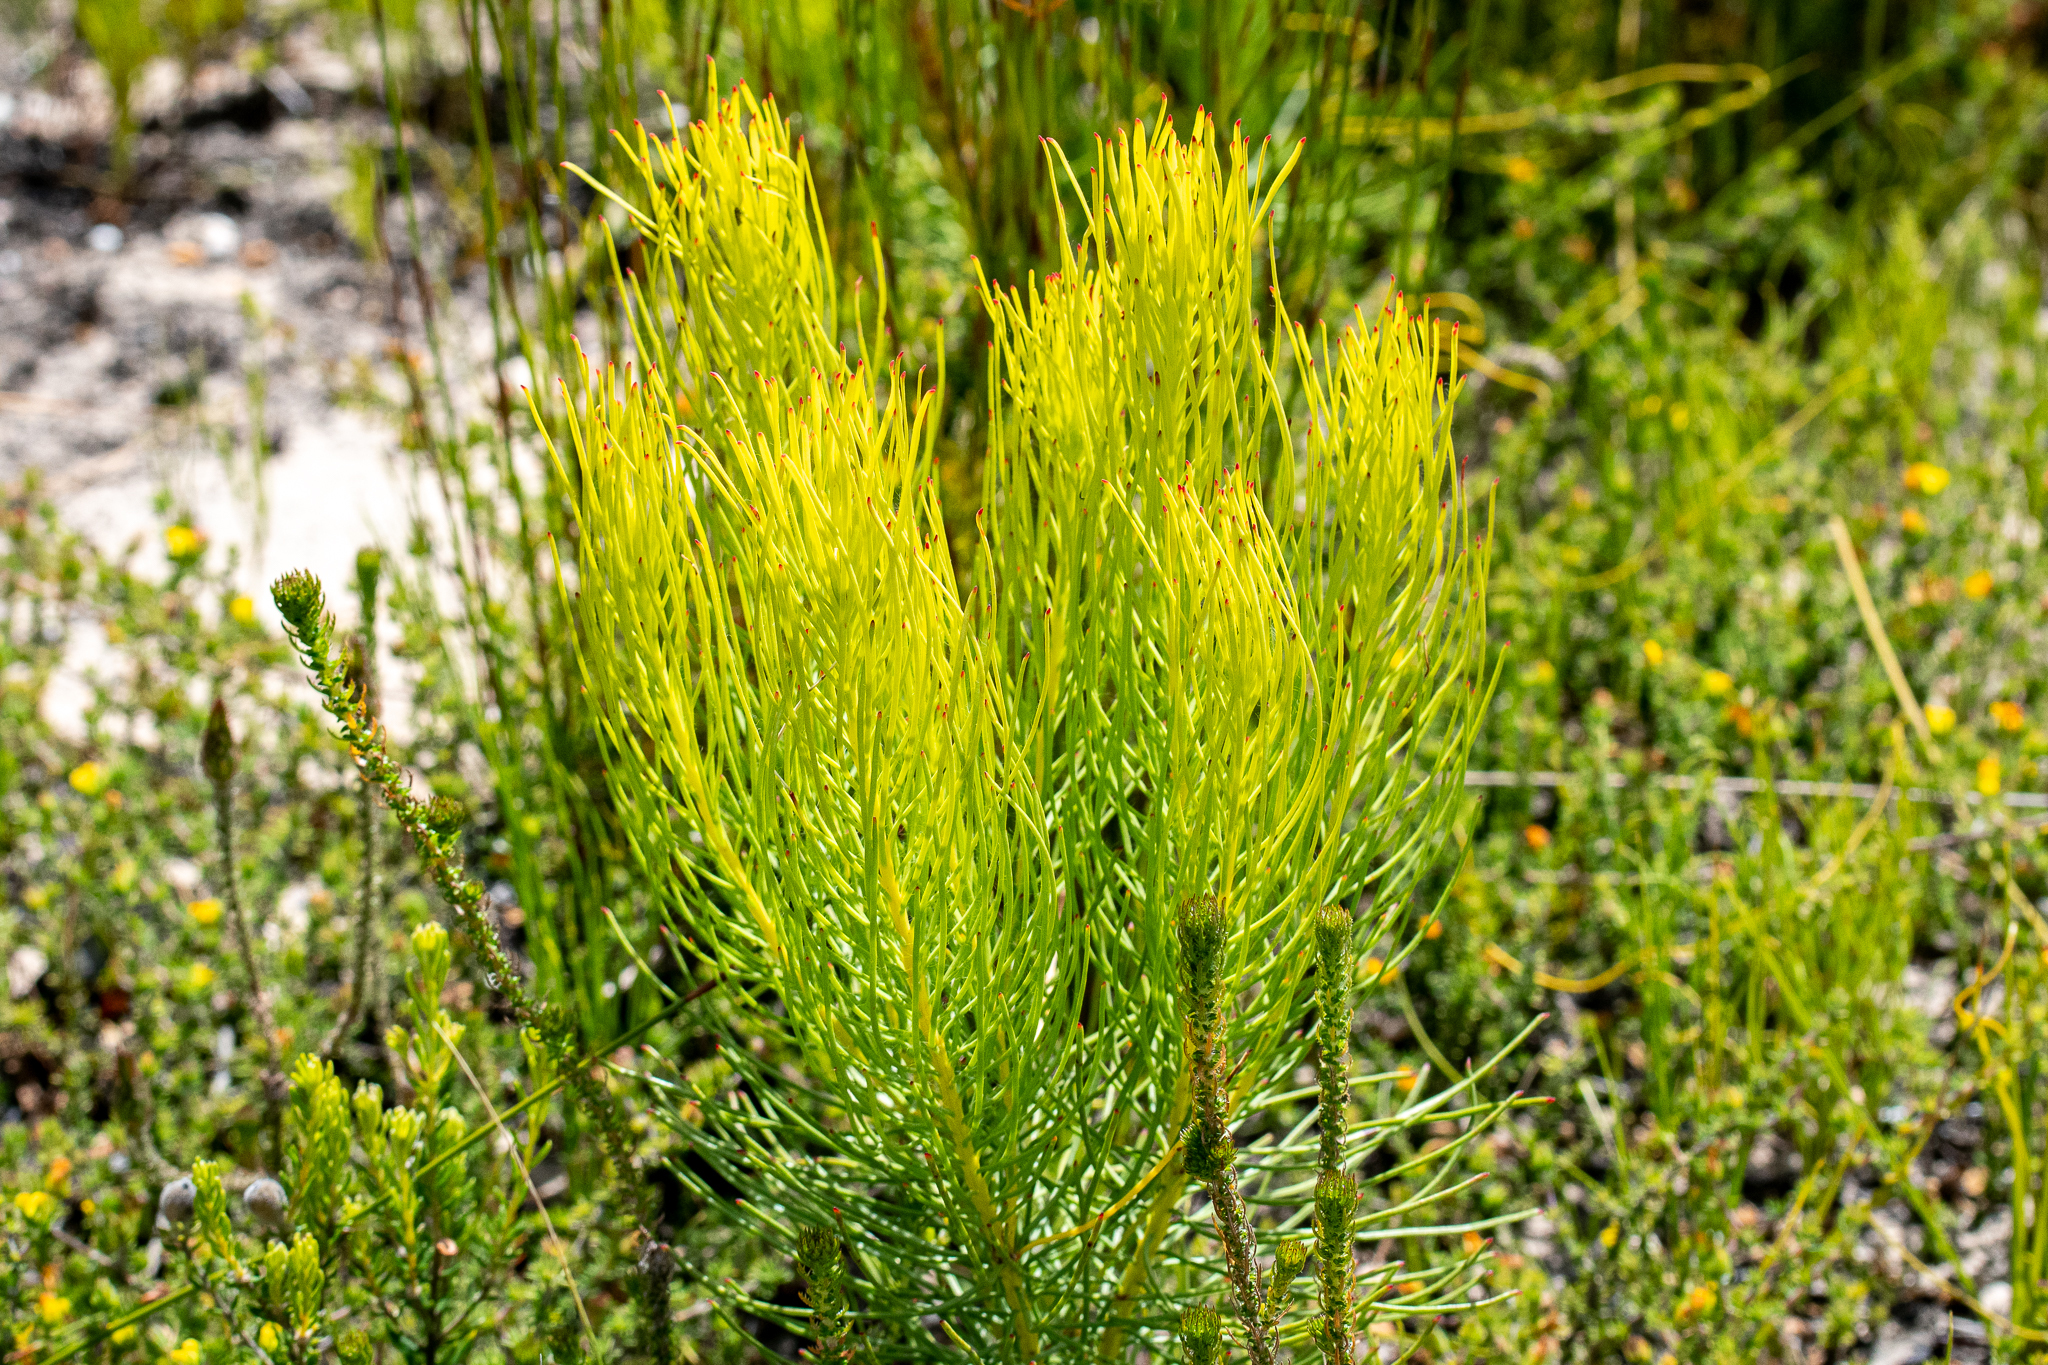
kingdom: Plantae
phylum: Tracheophyta
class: Magnoliopsida
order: Proteales
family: Proteaceae
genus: Leucadendron
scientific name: Leucadendron platyspermum
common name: Plate-seed conebush
